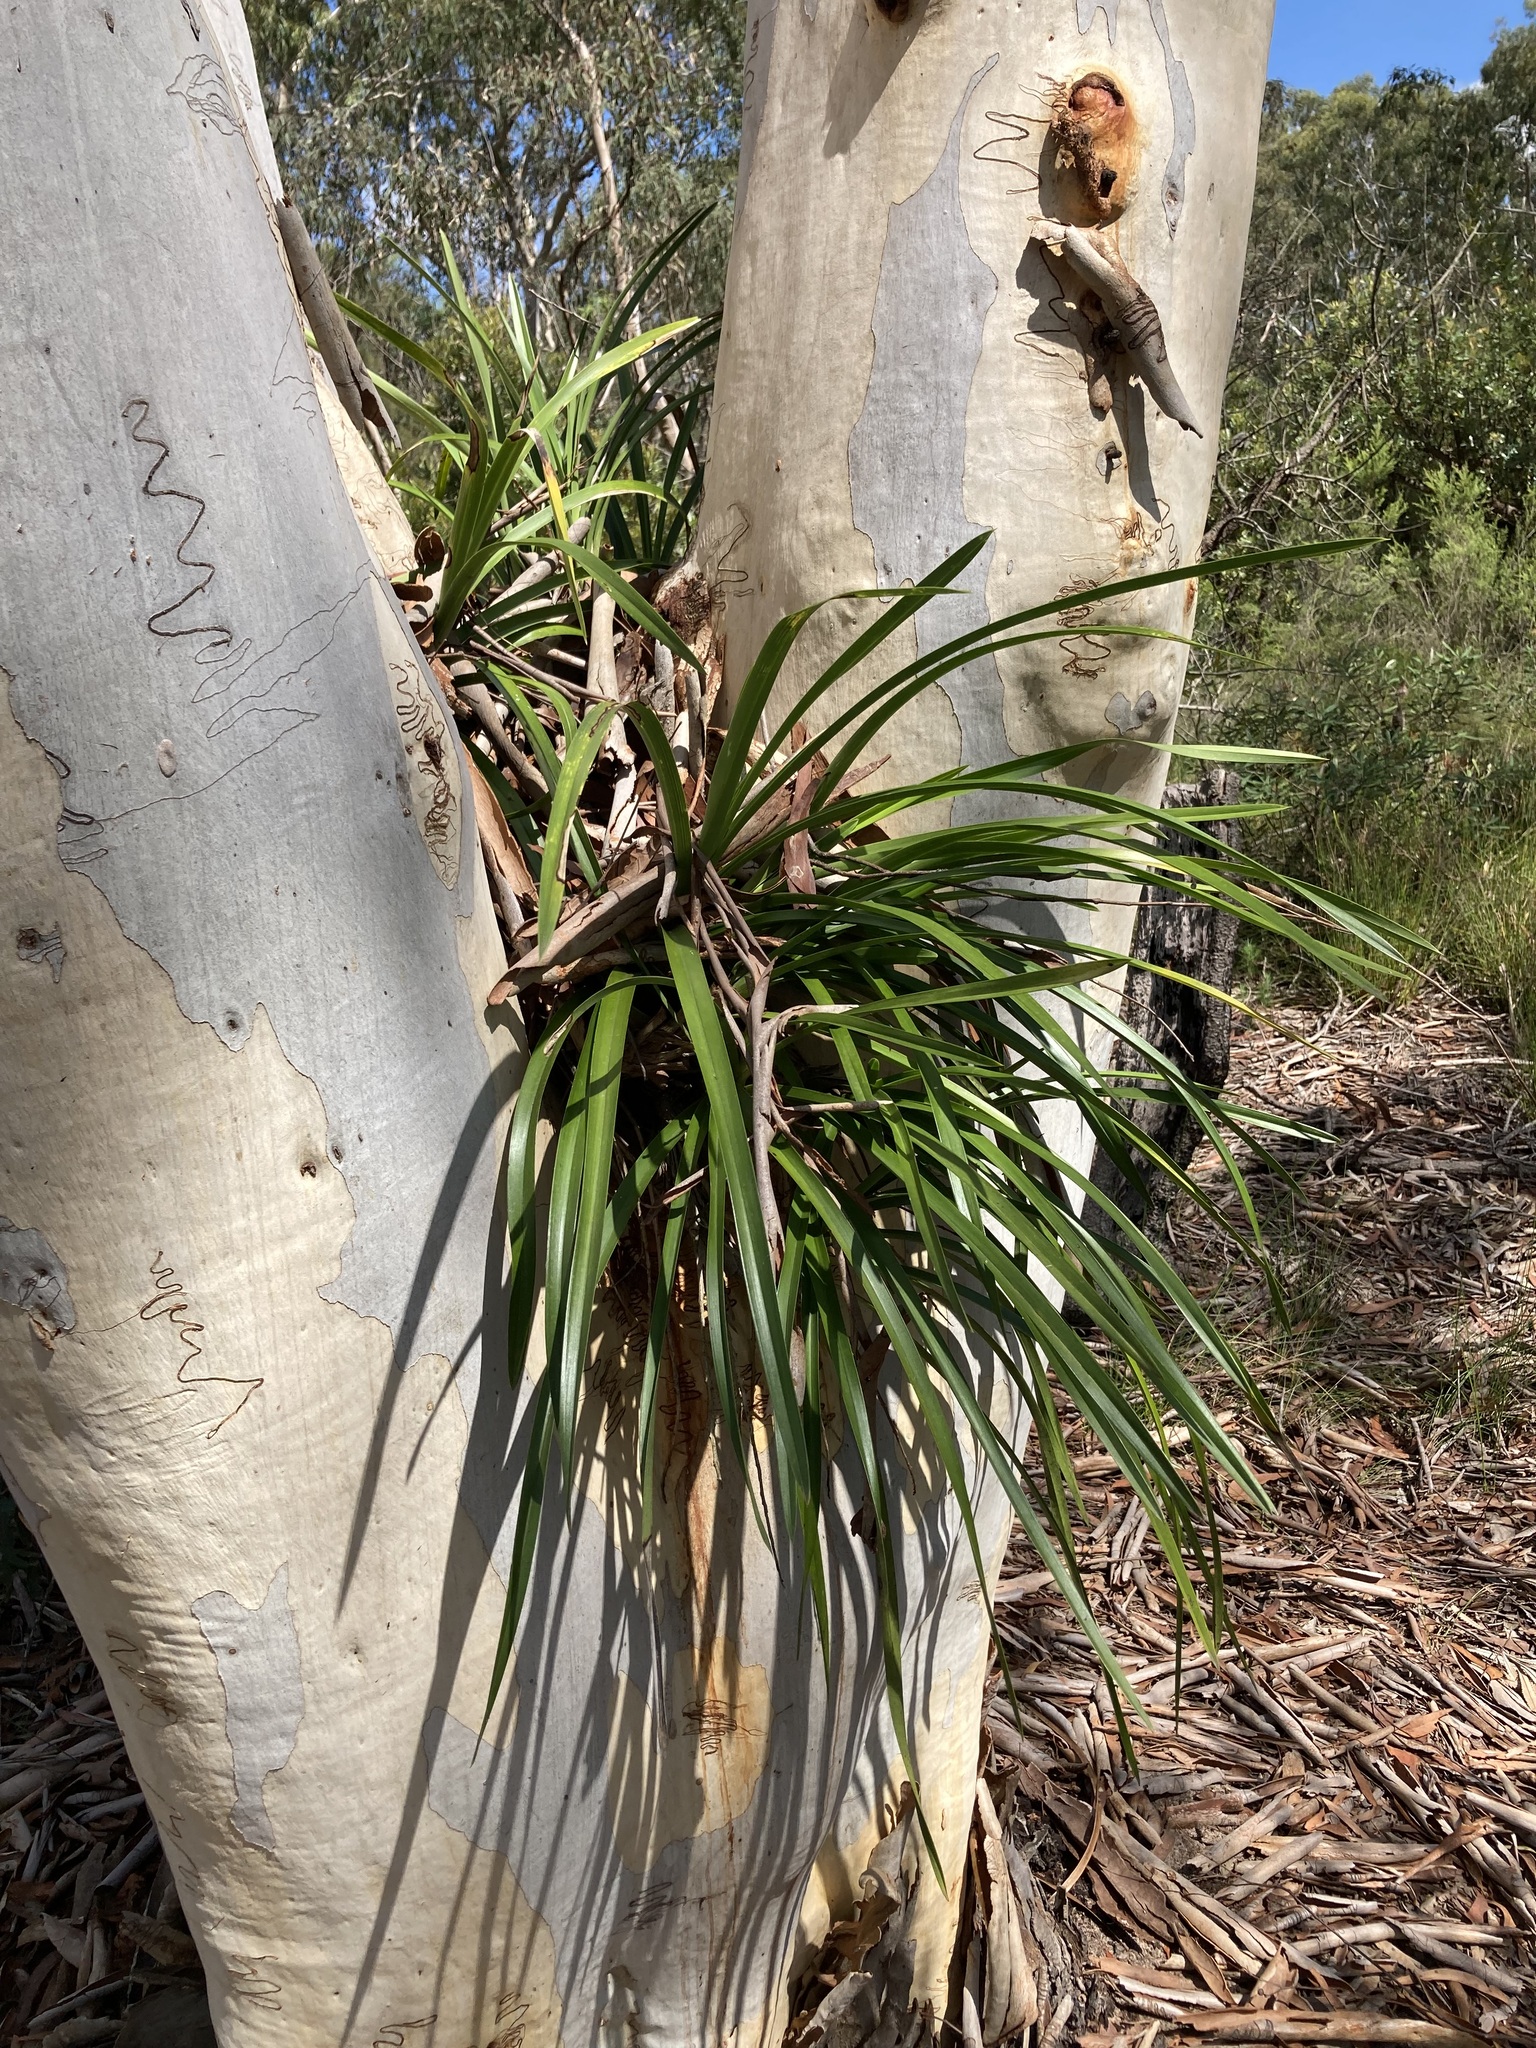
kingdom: Plantae
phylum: Tracheophyta
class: Liliopsida
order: Asparagales
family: Orchidaceae
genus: Cymbidium
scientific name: Cymbidium suave
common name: Snake orchid
